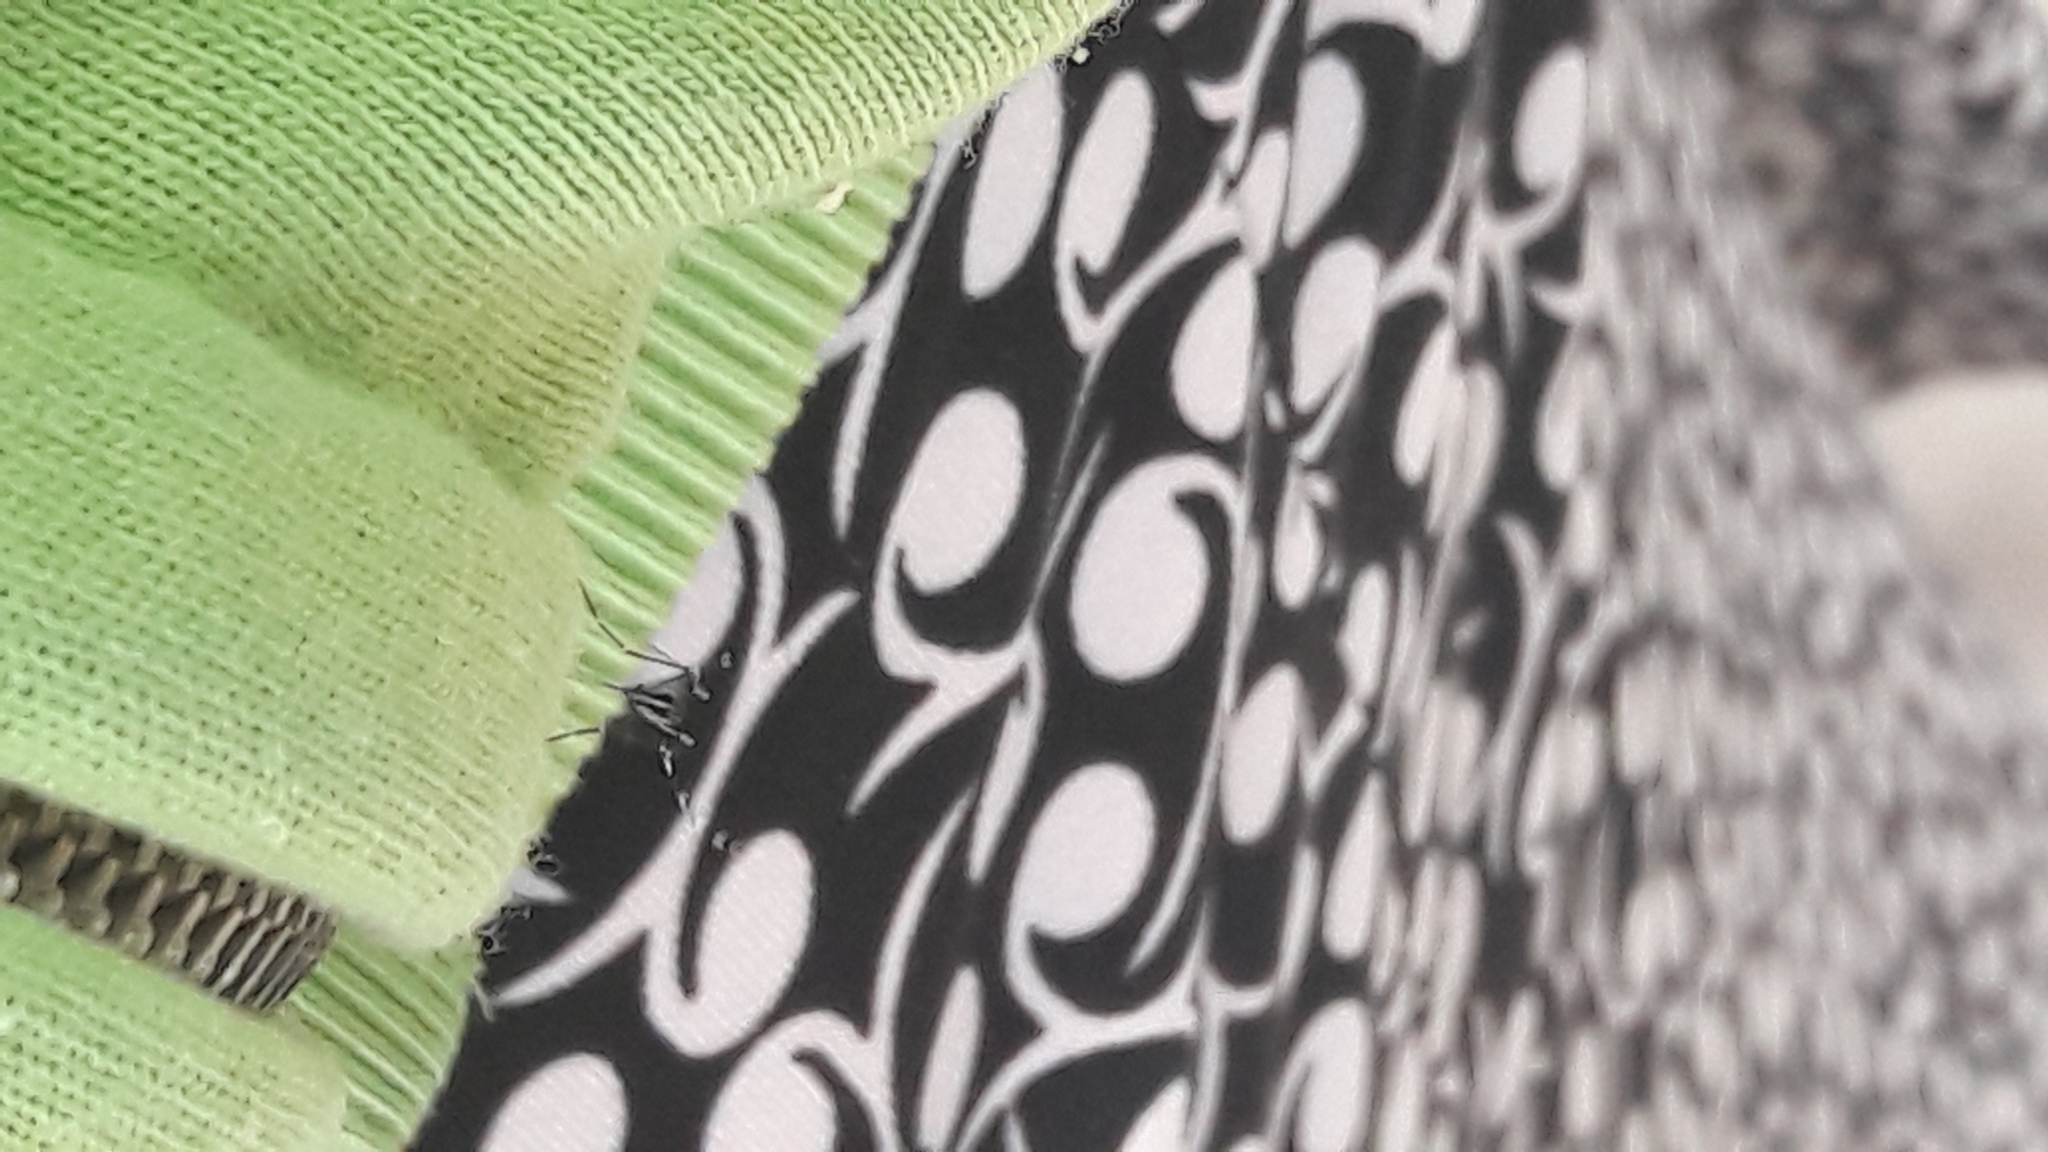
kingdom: Animalia
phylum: Arthropoda
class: Insecta
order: Diptera
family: Culicidae
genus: Aedes
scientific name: Aedes albopictus
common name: Tiger mosquito
